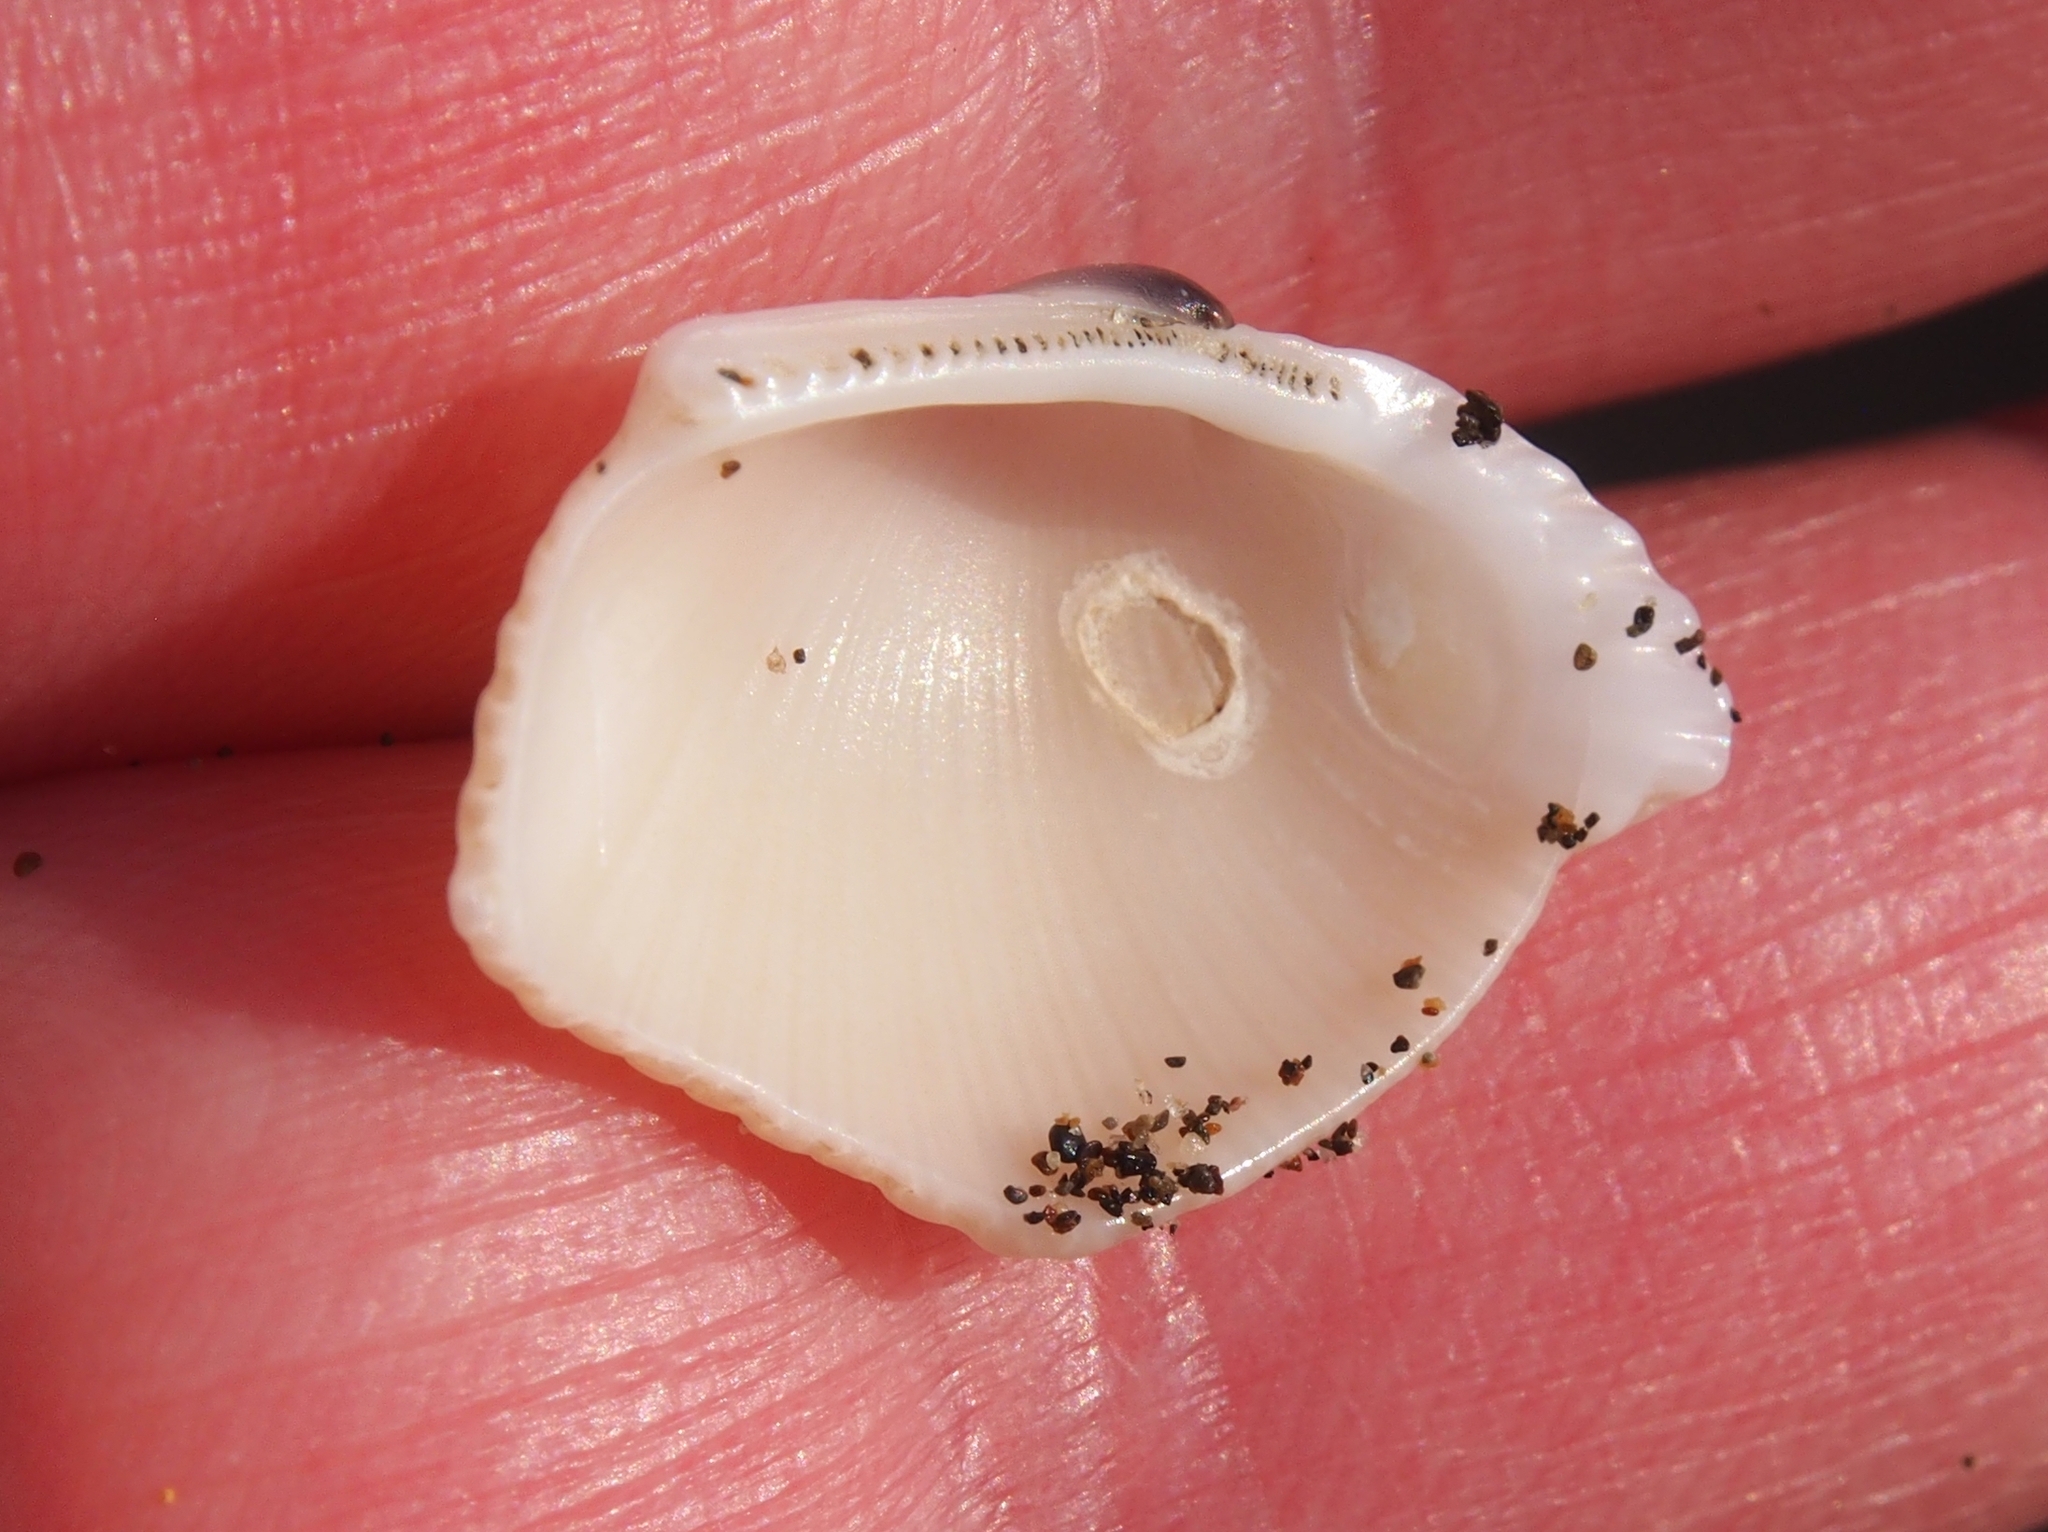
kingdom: Animalia
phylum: Mollusca
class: Bivalvia
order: Arcida
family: Arcidae
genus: Lunarca
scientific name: Lunarca brevifrons
